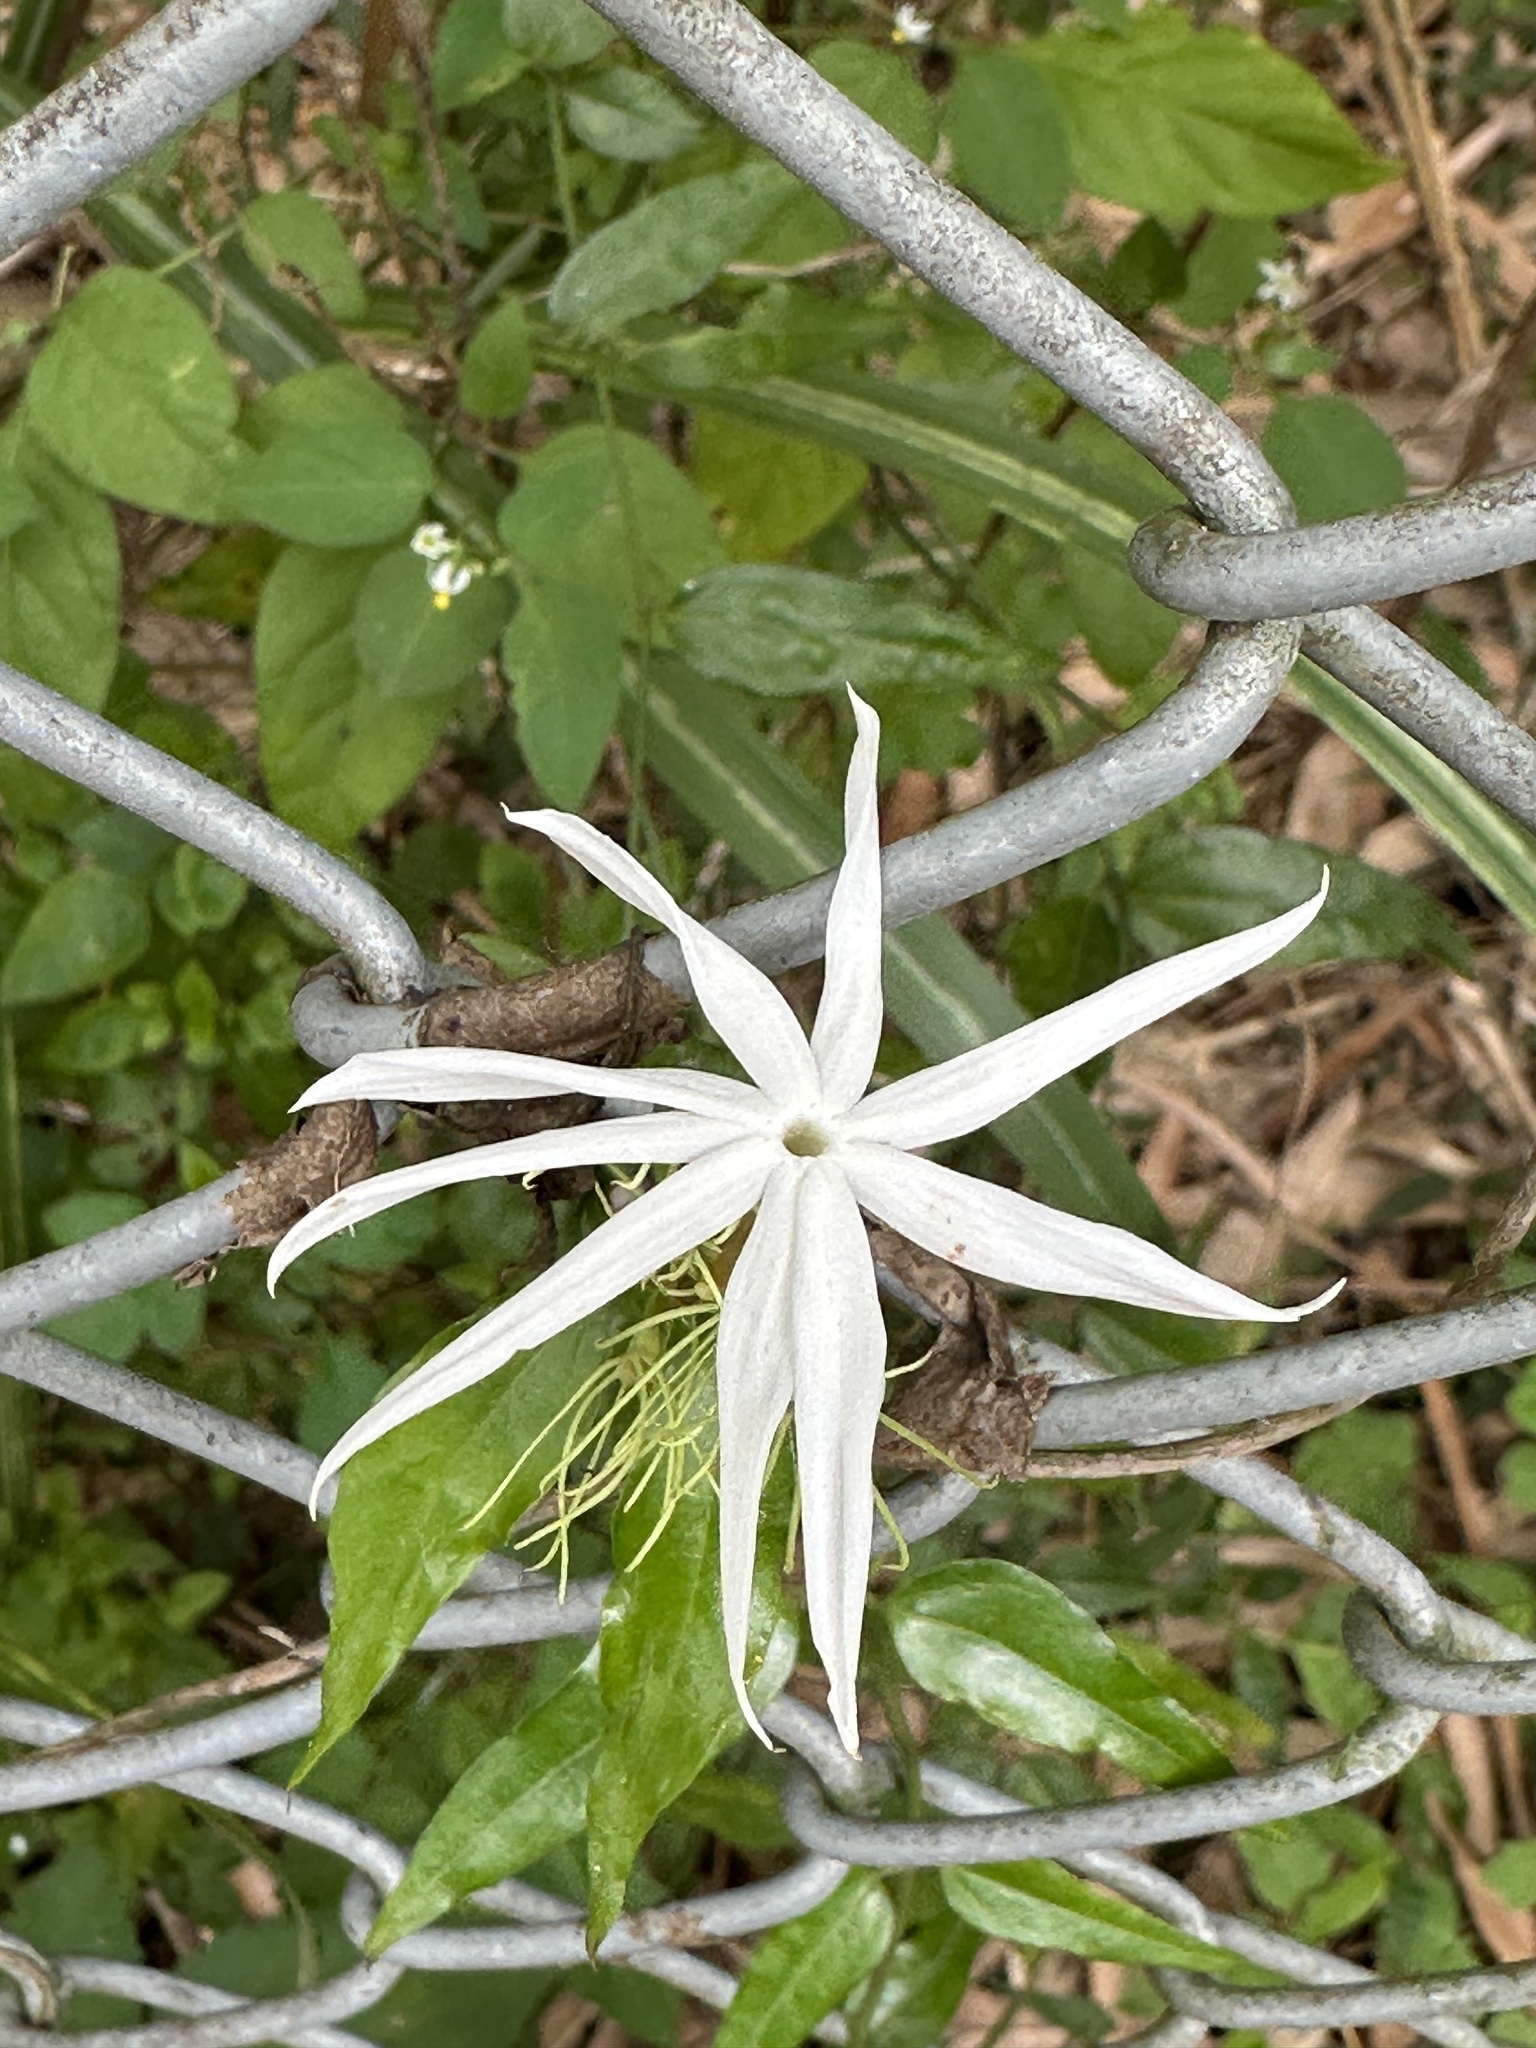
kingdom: Plantae
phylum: Tracheophyta
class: Magnoliopsida
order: Lamiales
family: Oleaceae
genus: Jasminum
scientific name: Jasminum nervosum
